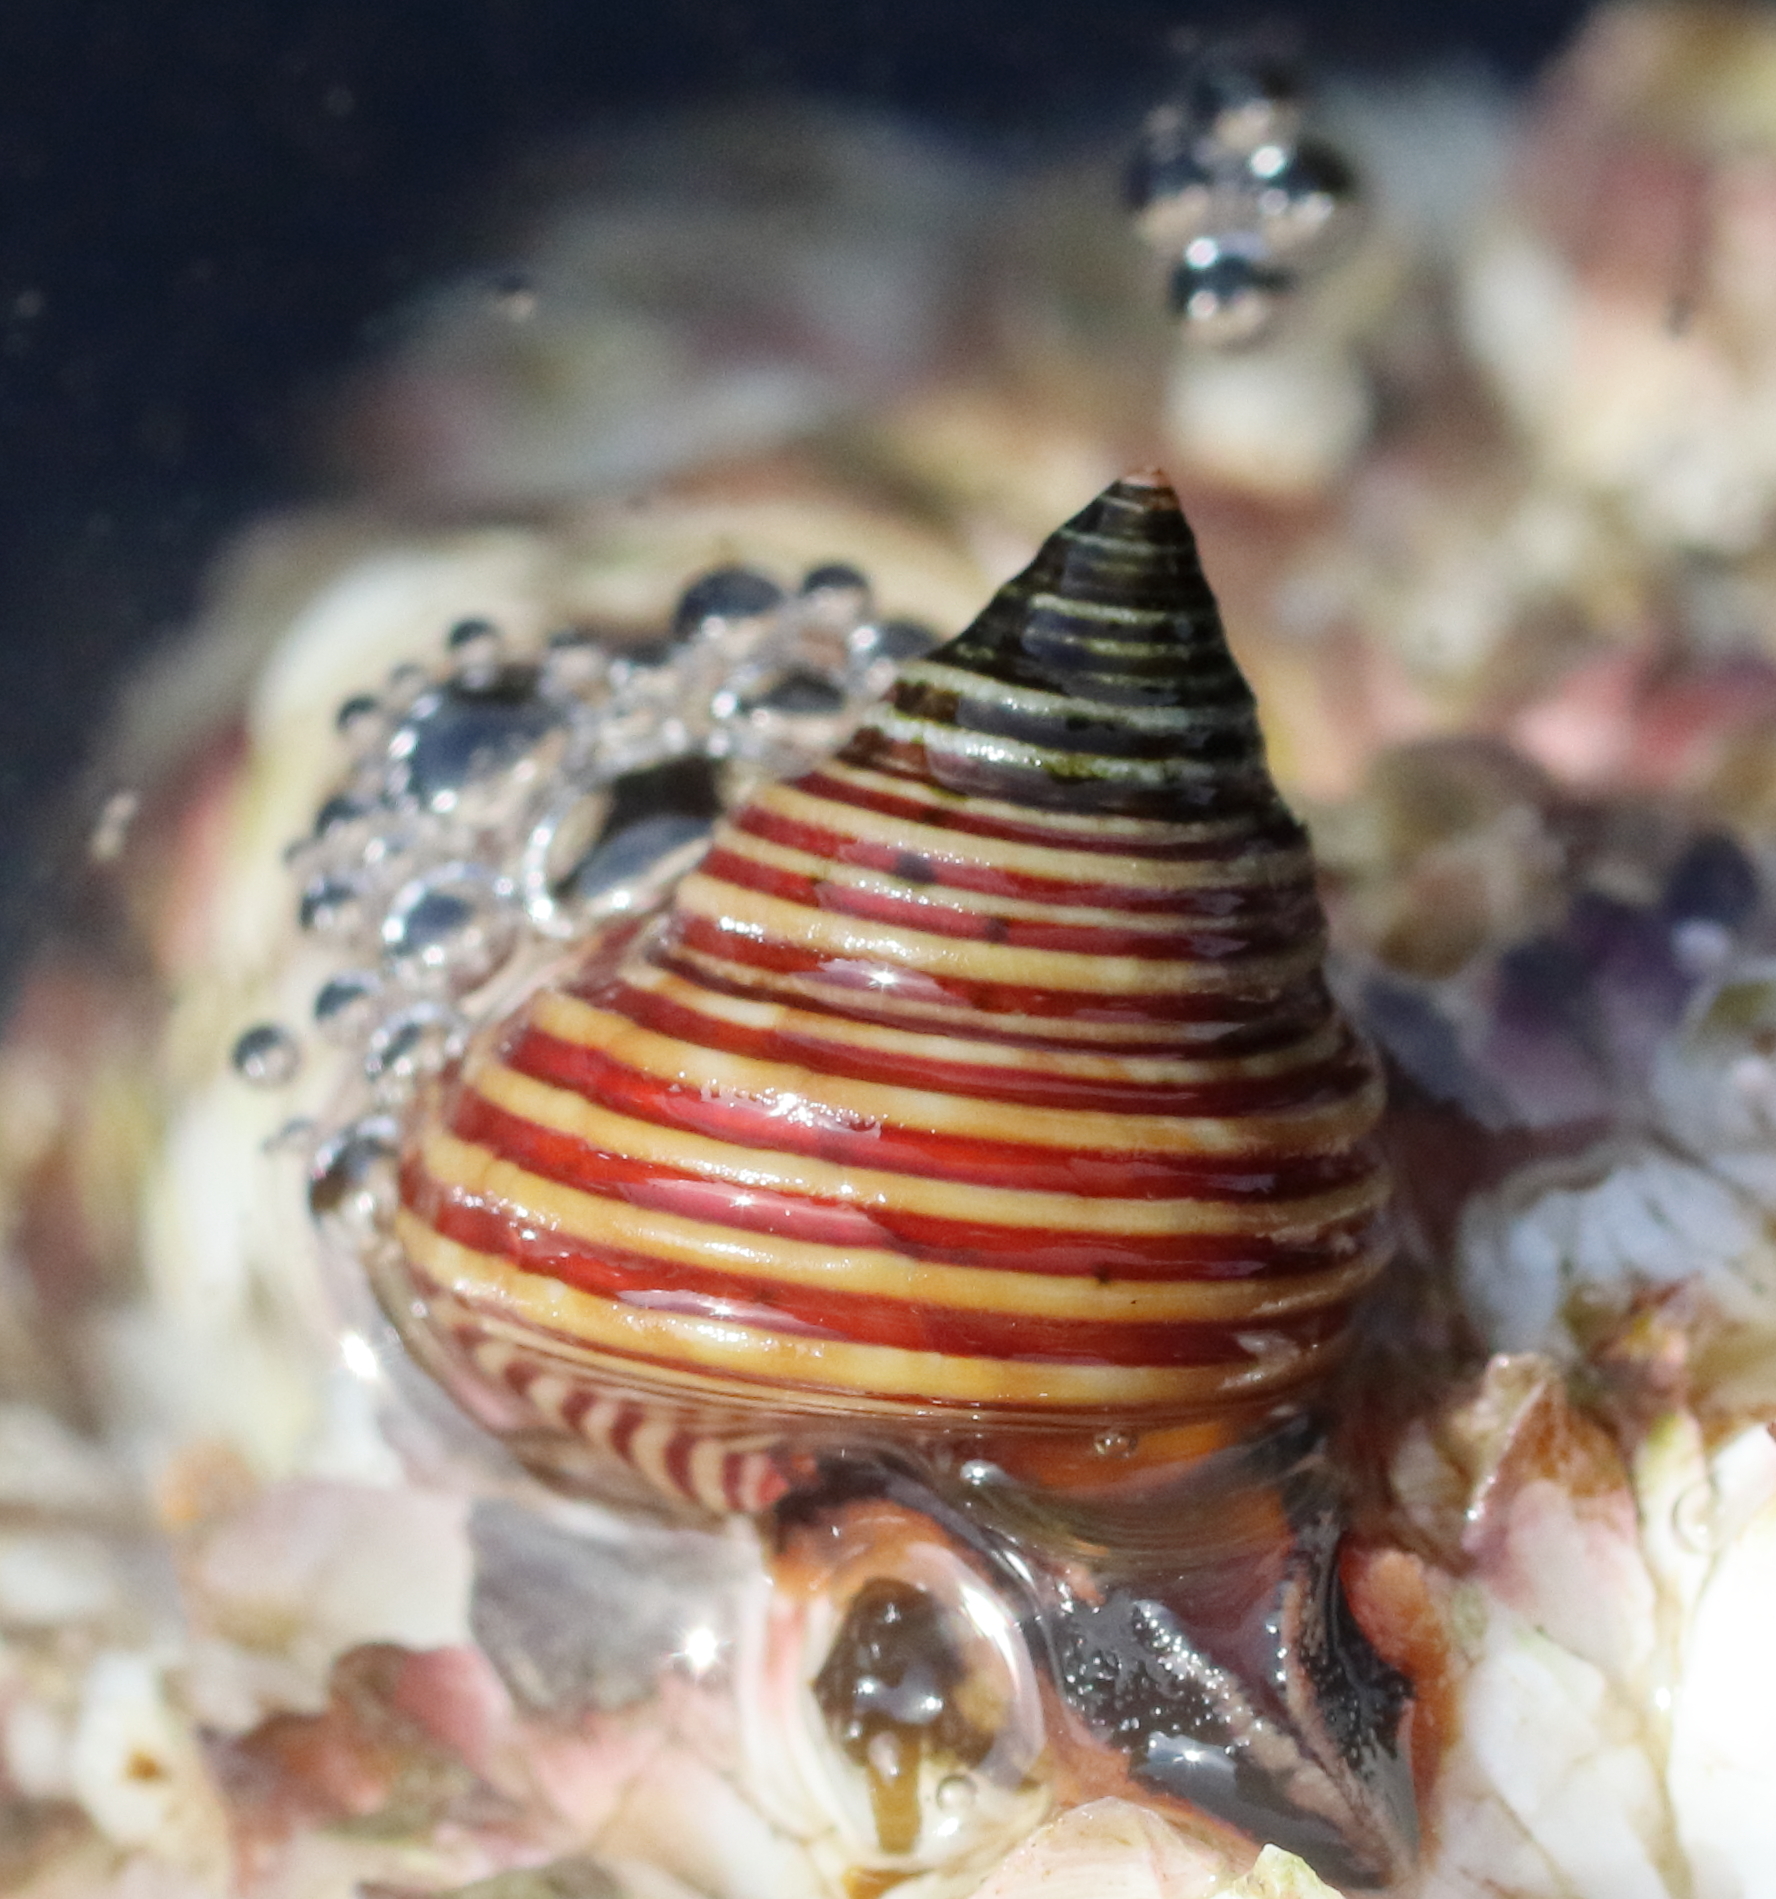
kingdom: Animalia
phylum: Mollusca
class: Gastropoda
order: Trochida
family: Calliostomatidae
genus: Calliostoma
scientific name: Calliostoma ligatum
